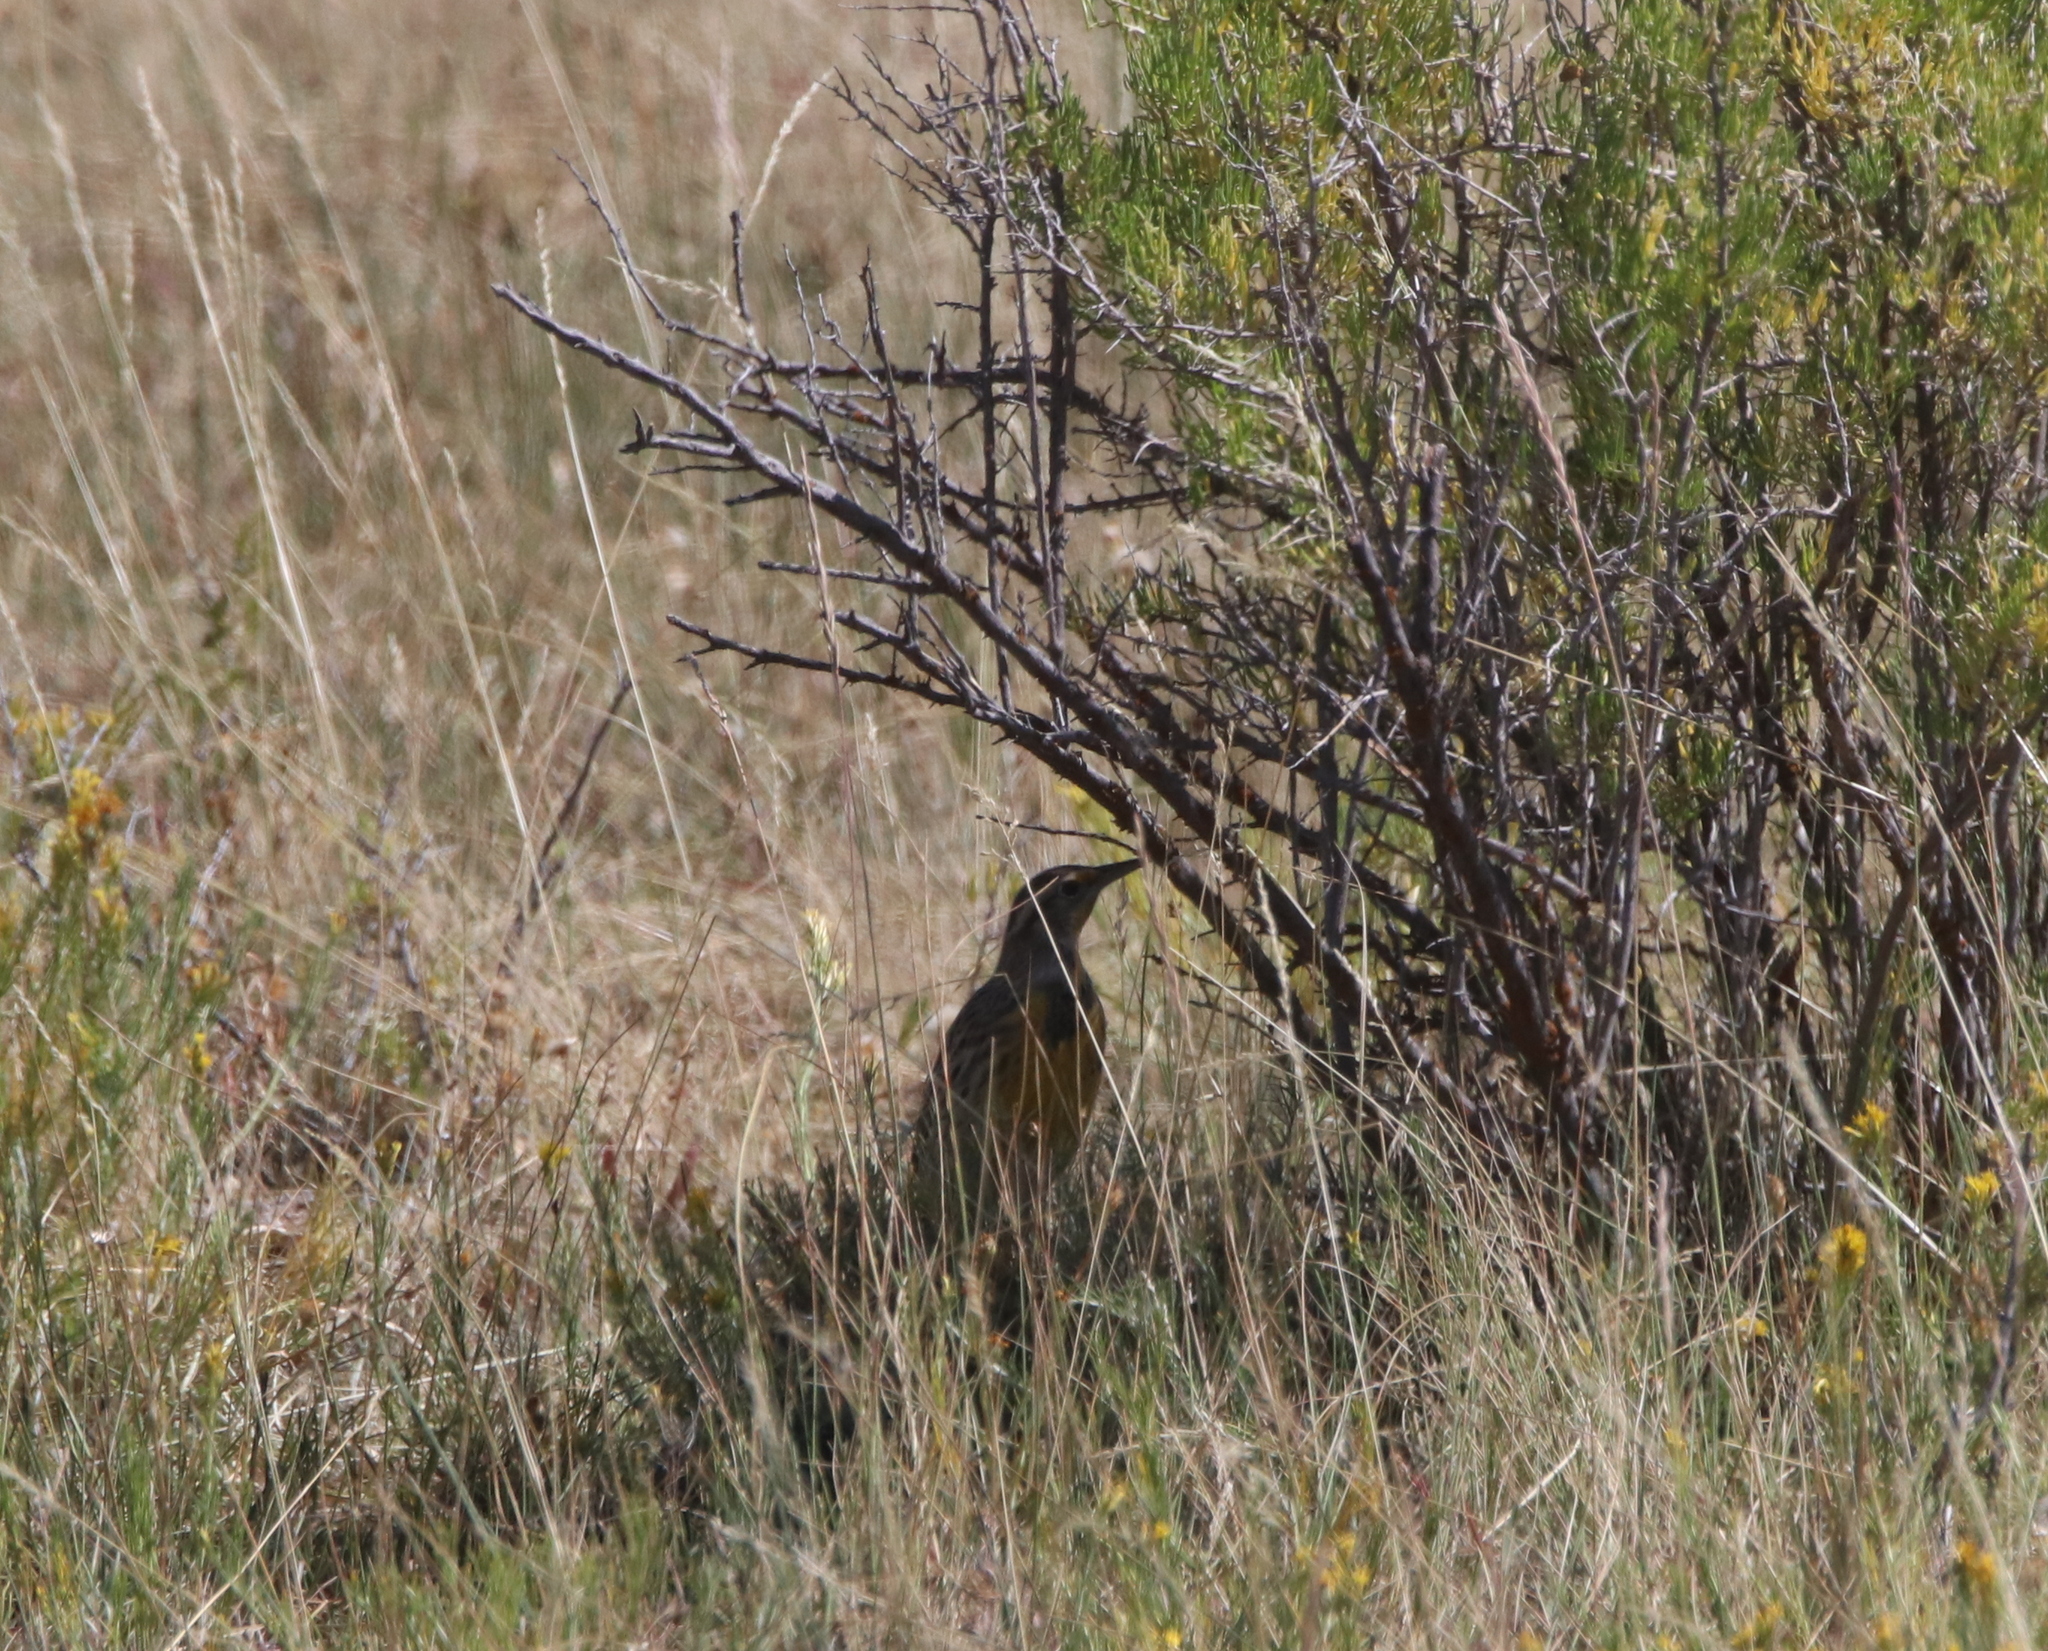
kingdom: Animalia
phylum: Chordata
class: Aves
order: Passeriformes
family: Icteridae
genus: Sturnella
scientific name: Sturnella neglecta
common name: Western meadowlark
